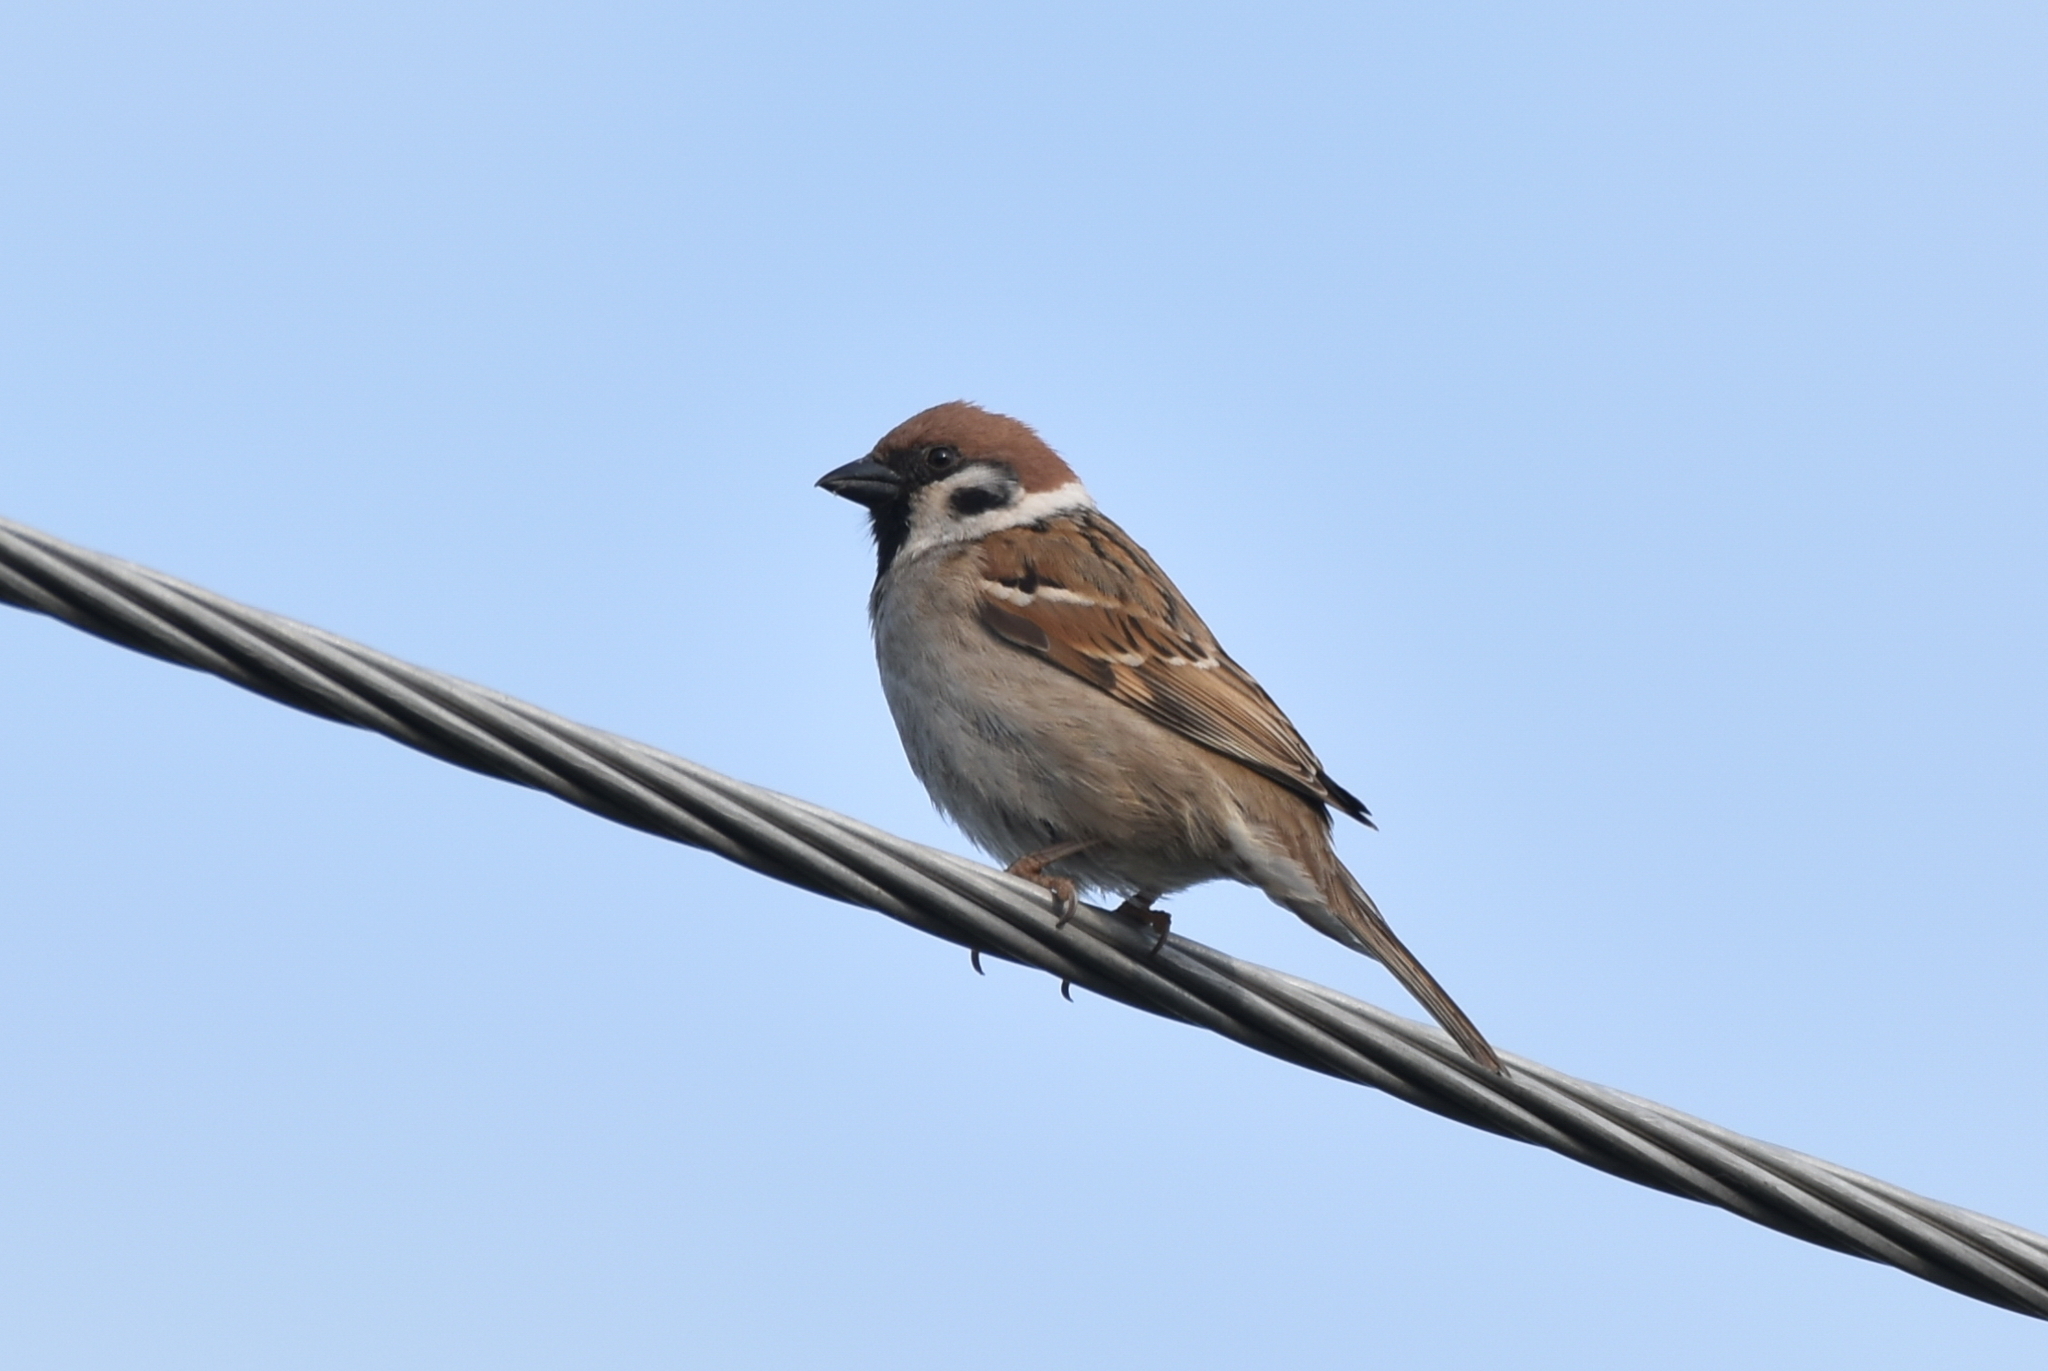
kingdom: Animalia
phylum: Chordata
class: Aves
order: Passeriformes
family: Passeridae
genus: Passer
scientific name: Passer montanus
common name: Eurasian tree sparrow
